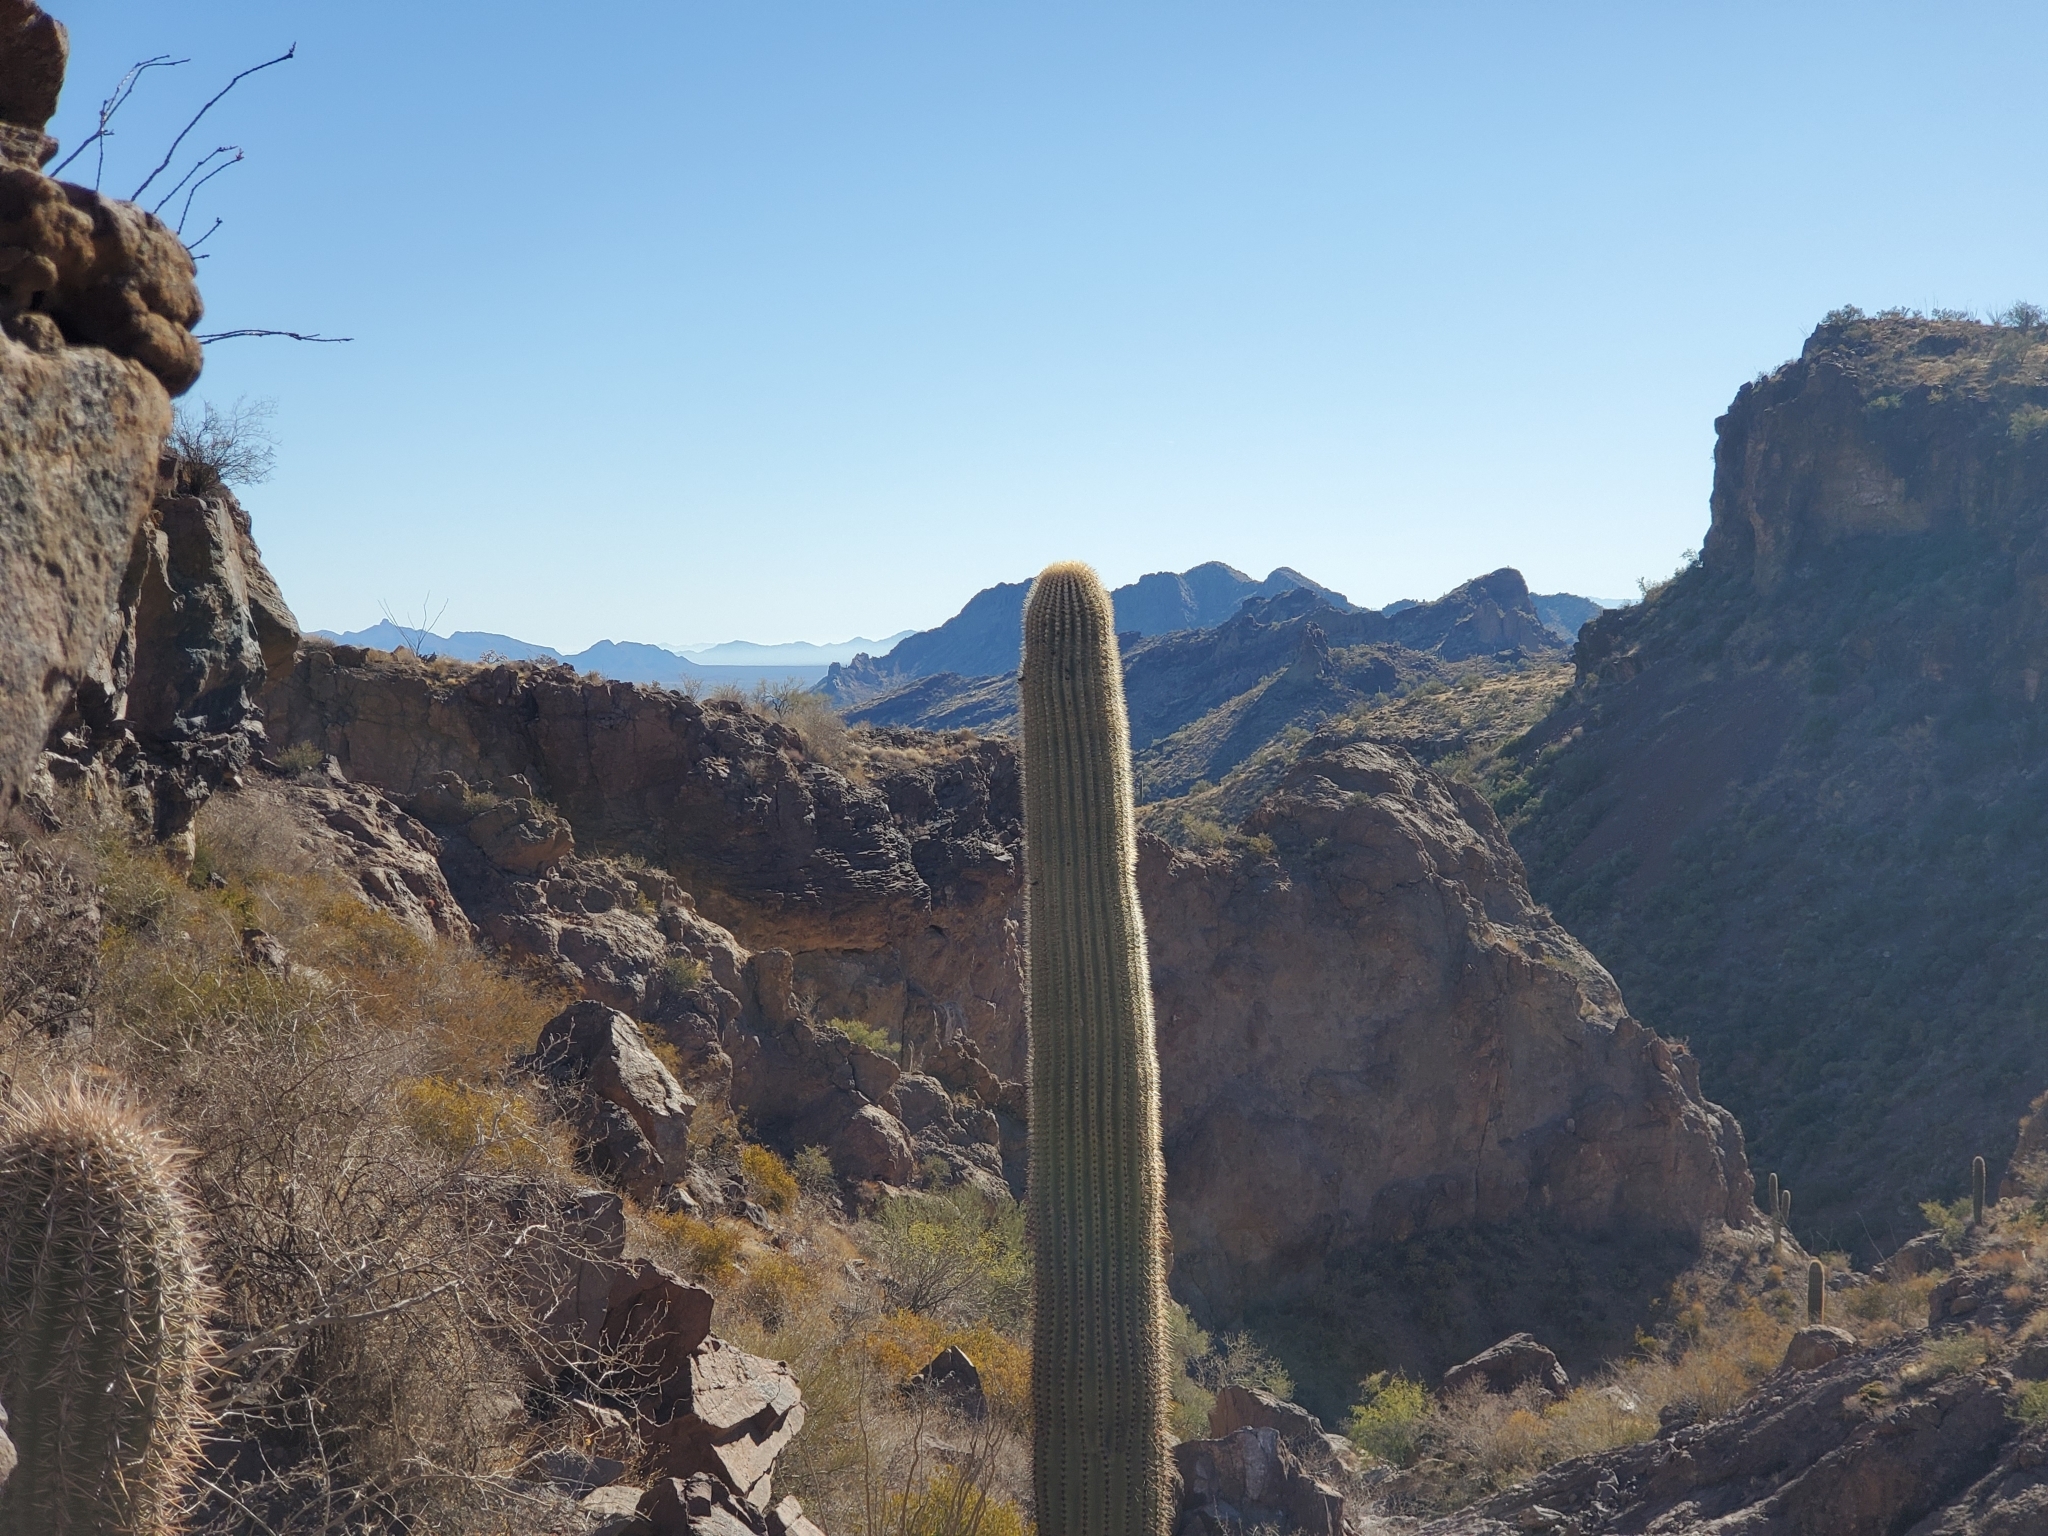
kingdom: Plantae
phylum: Tracheophyta
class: Magnoliopsida
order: Caryophyllales
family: Cactaceae
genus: Carnegiea
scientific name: Carnegiea gigantea
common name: Saguaro
